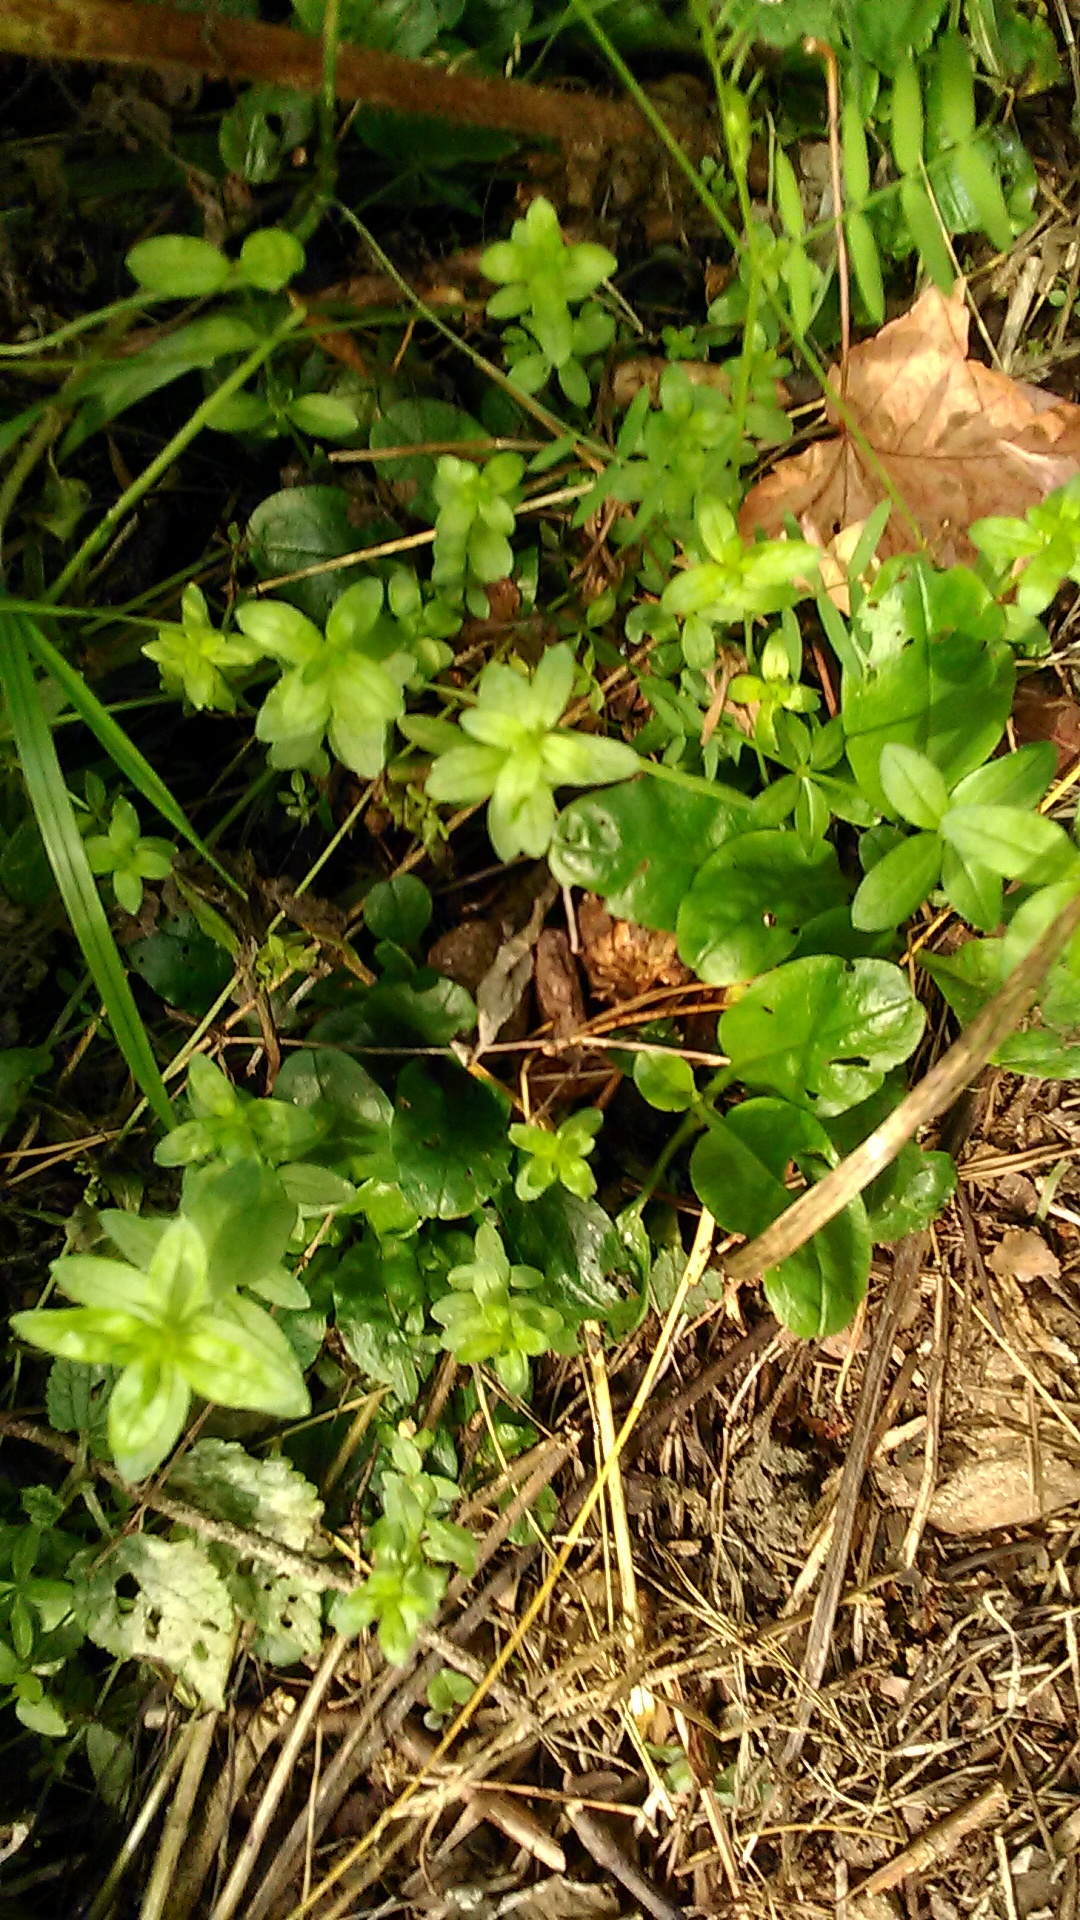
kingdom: Plantae
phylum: Tracheophyta
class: Magnoliopsida
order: Gentianales
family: Rubiaceae
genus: Cruciata
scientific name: Cruciata laevipes
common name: Crosswort
